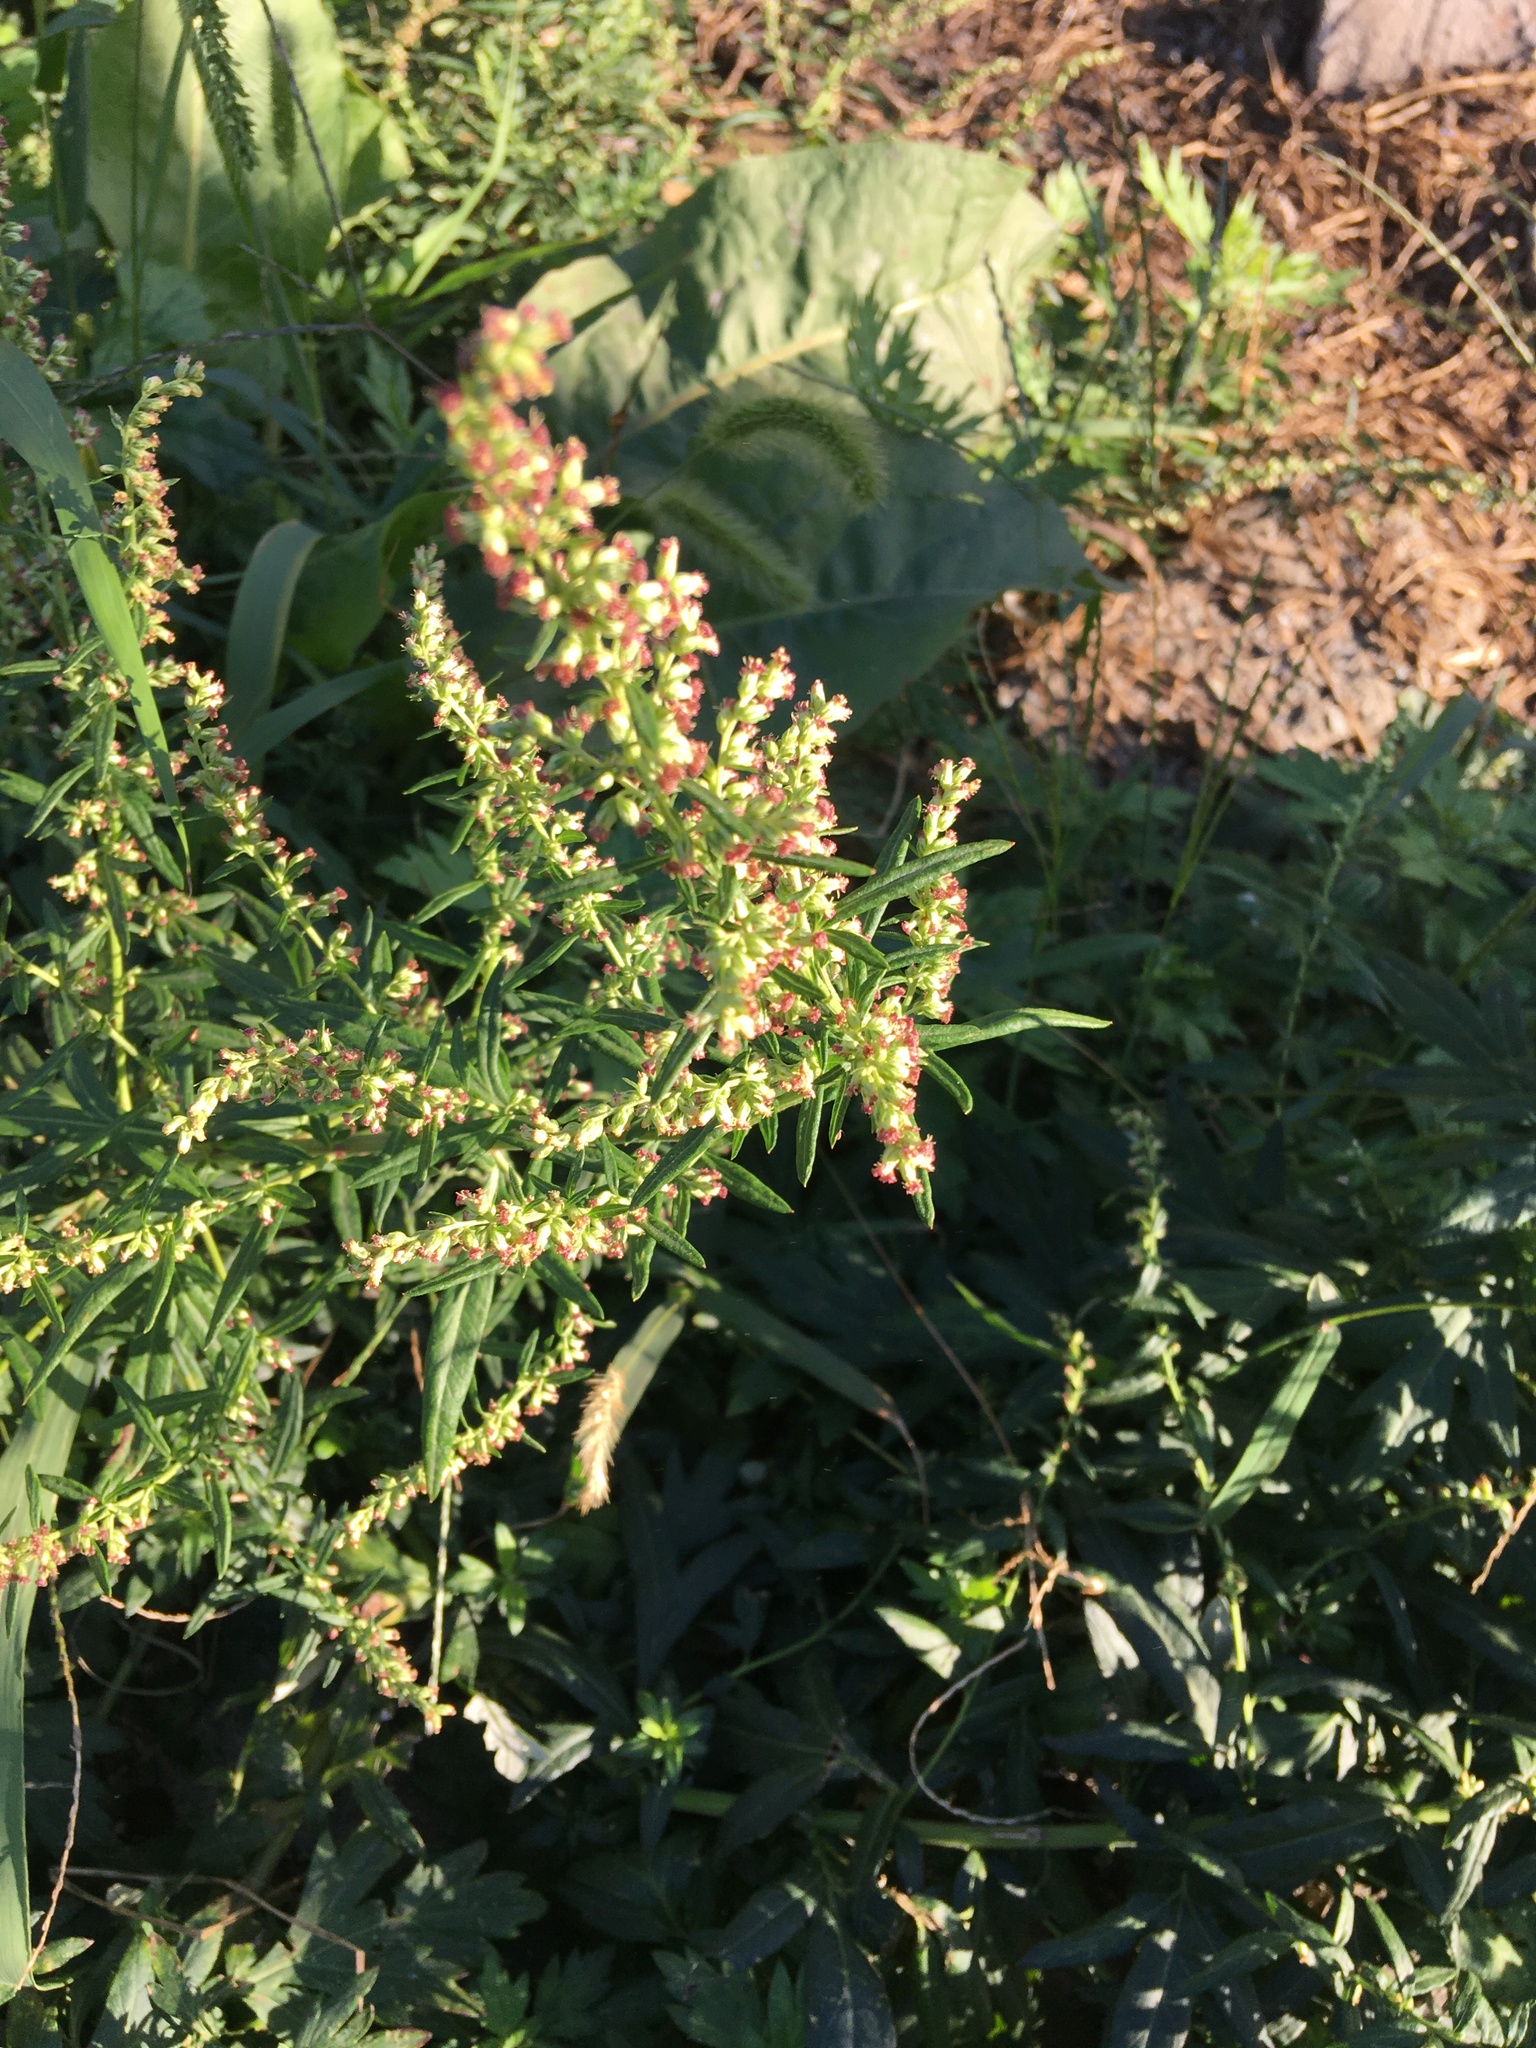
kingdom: Plantae
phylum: Tracheophyta
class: Magnoliopsida
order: Asterales
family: Asteraceae
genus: Artemisia
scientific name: Artemisia vulgaris
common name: Mugwort
